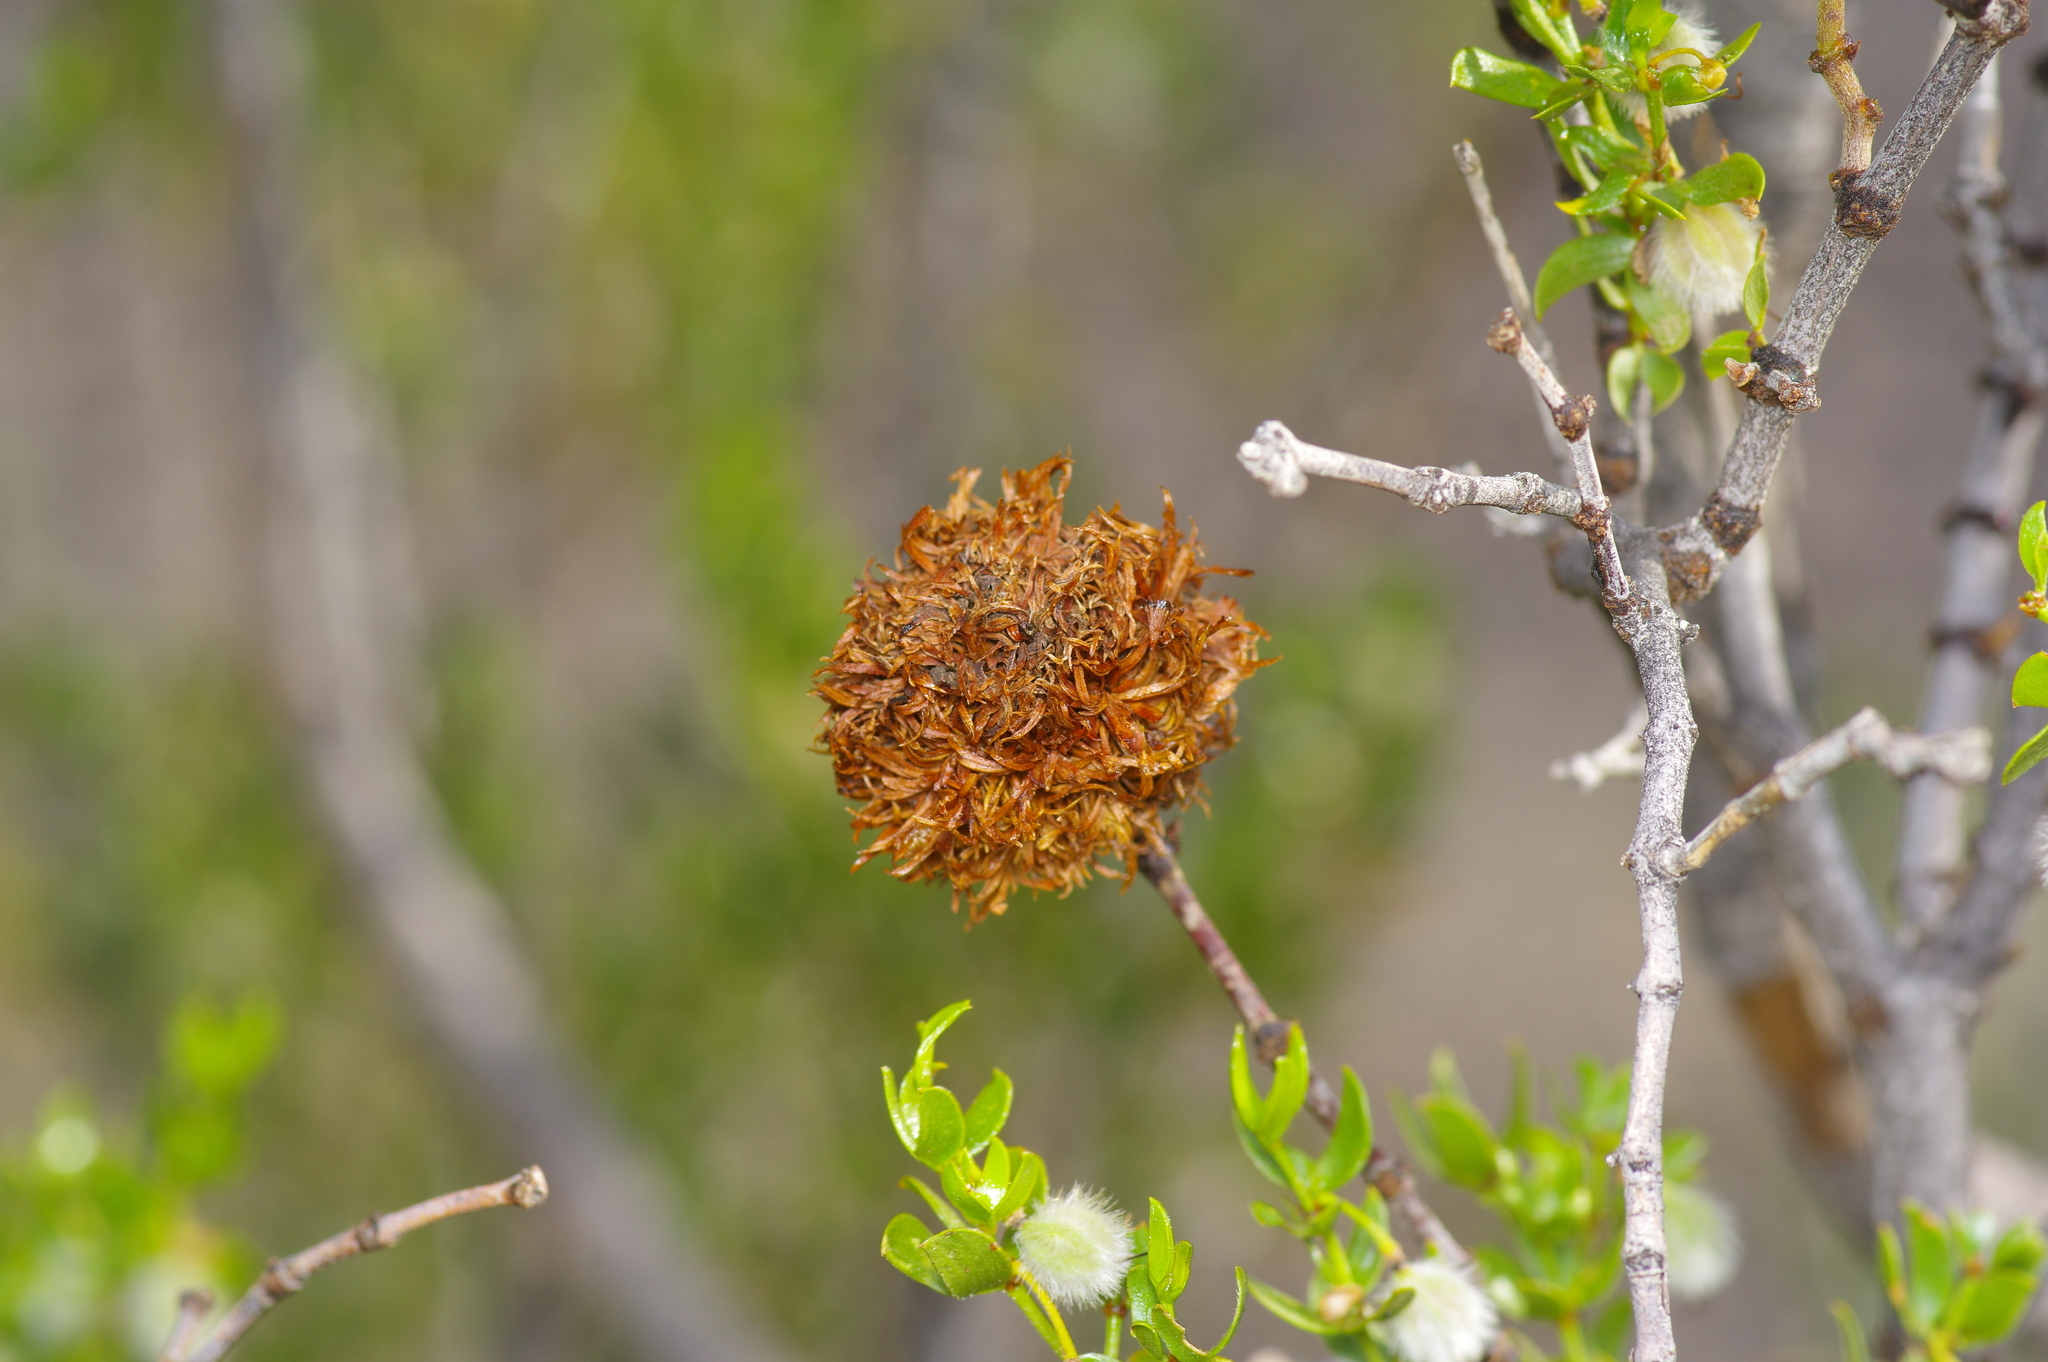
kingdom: Animalia
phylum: Arthropoda
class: Insecta
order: Diptera
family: Cecidomyiidae
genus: Asphondylia
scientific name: Asphondylia auripila
